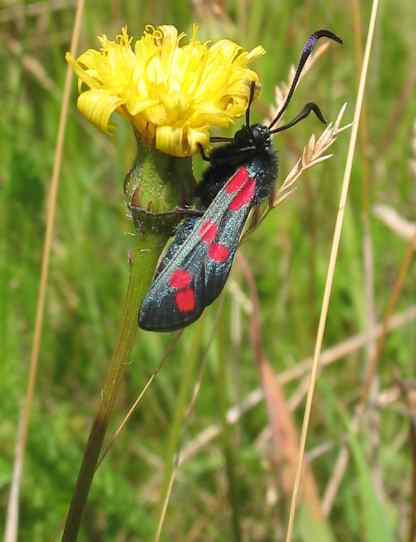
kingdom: Animalia
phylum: Arthropoda
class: Insecta
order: Lepidoptera
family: Zygaenidae
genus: Zygaena
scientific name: Zygaena filipendulae
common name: Six-spot burnet
